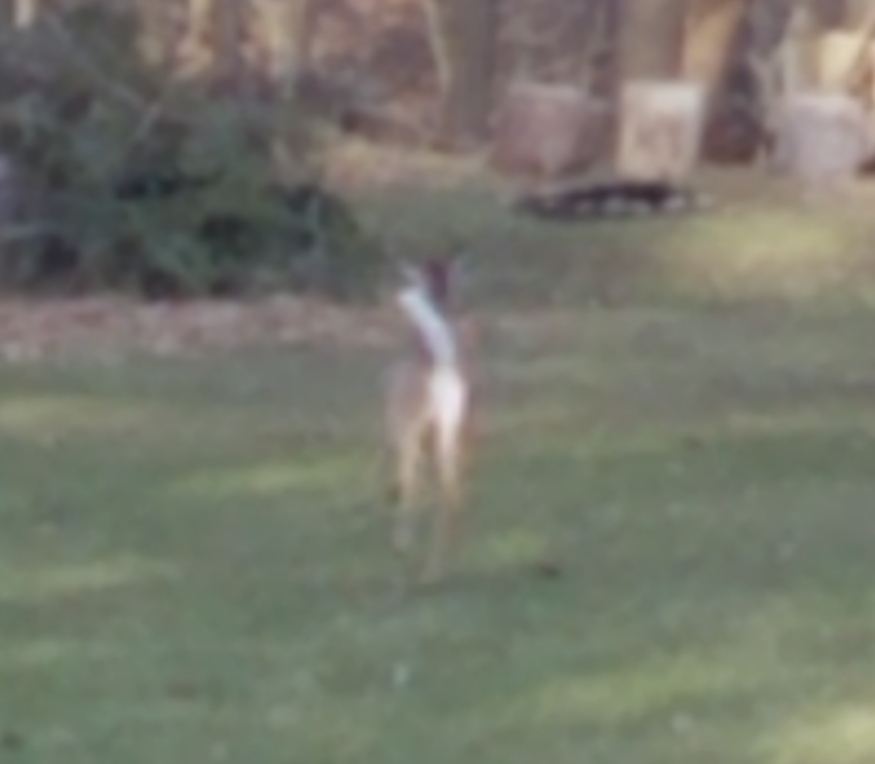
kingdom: Animalia
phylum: Chordata
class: Mammalia
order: Artiodactyla
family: Cervidae
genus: Odocoileus
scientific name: Odocoileus virginianus
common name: White-tailed deer
